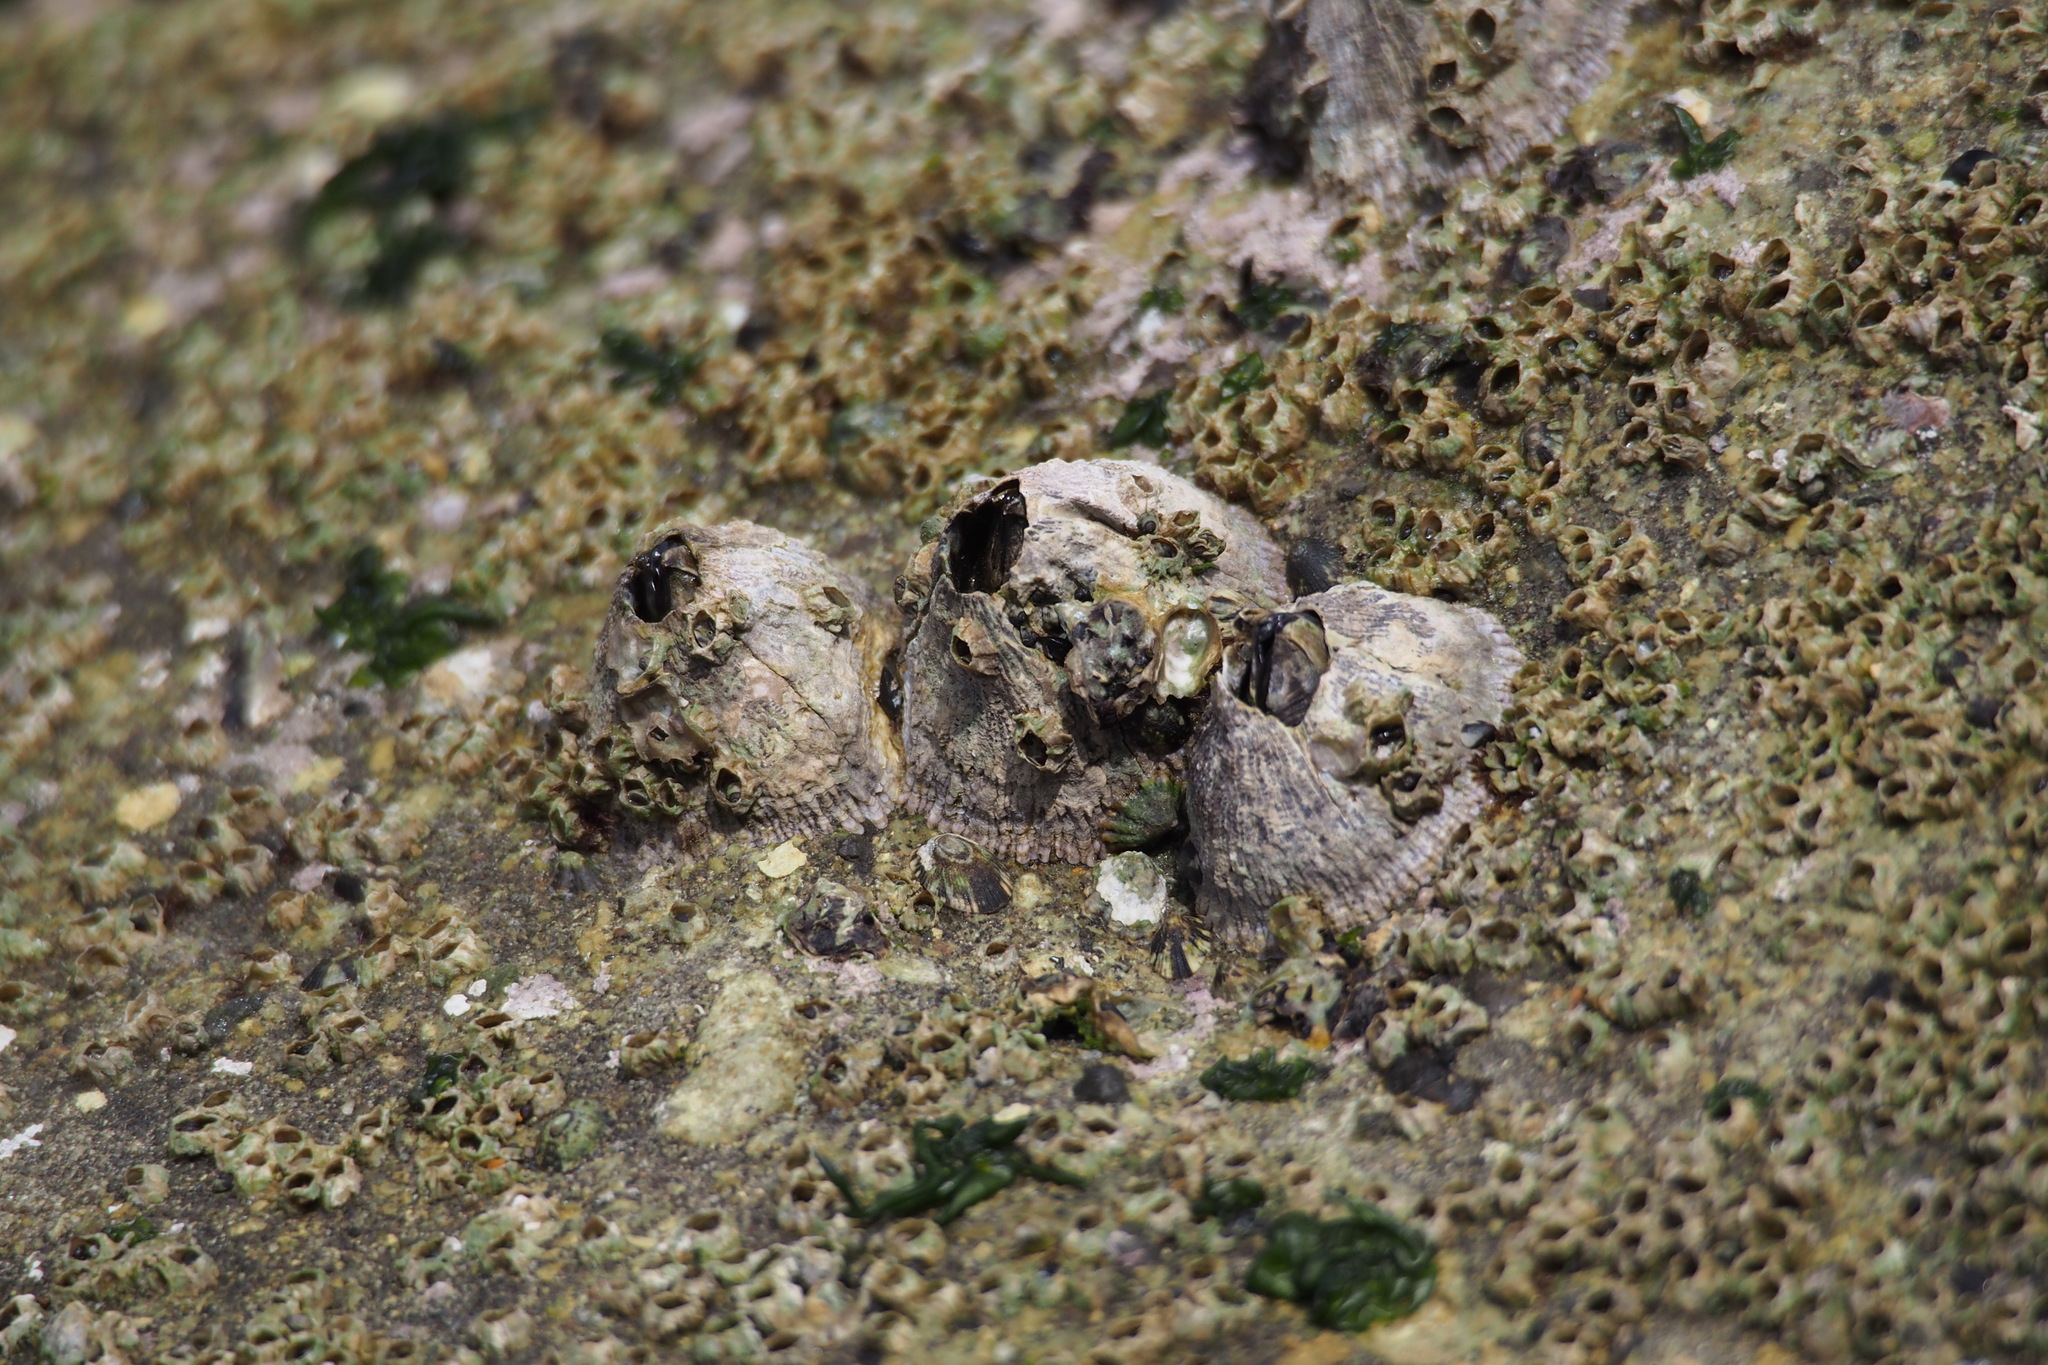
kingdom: Animalia
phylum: Arthropoda
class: Maxillopoda
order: Sessilia
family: Tetraclitidae
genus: Tetraclita
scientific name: Tetraclita japonica
